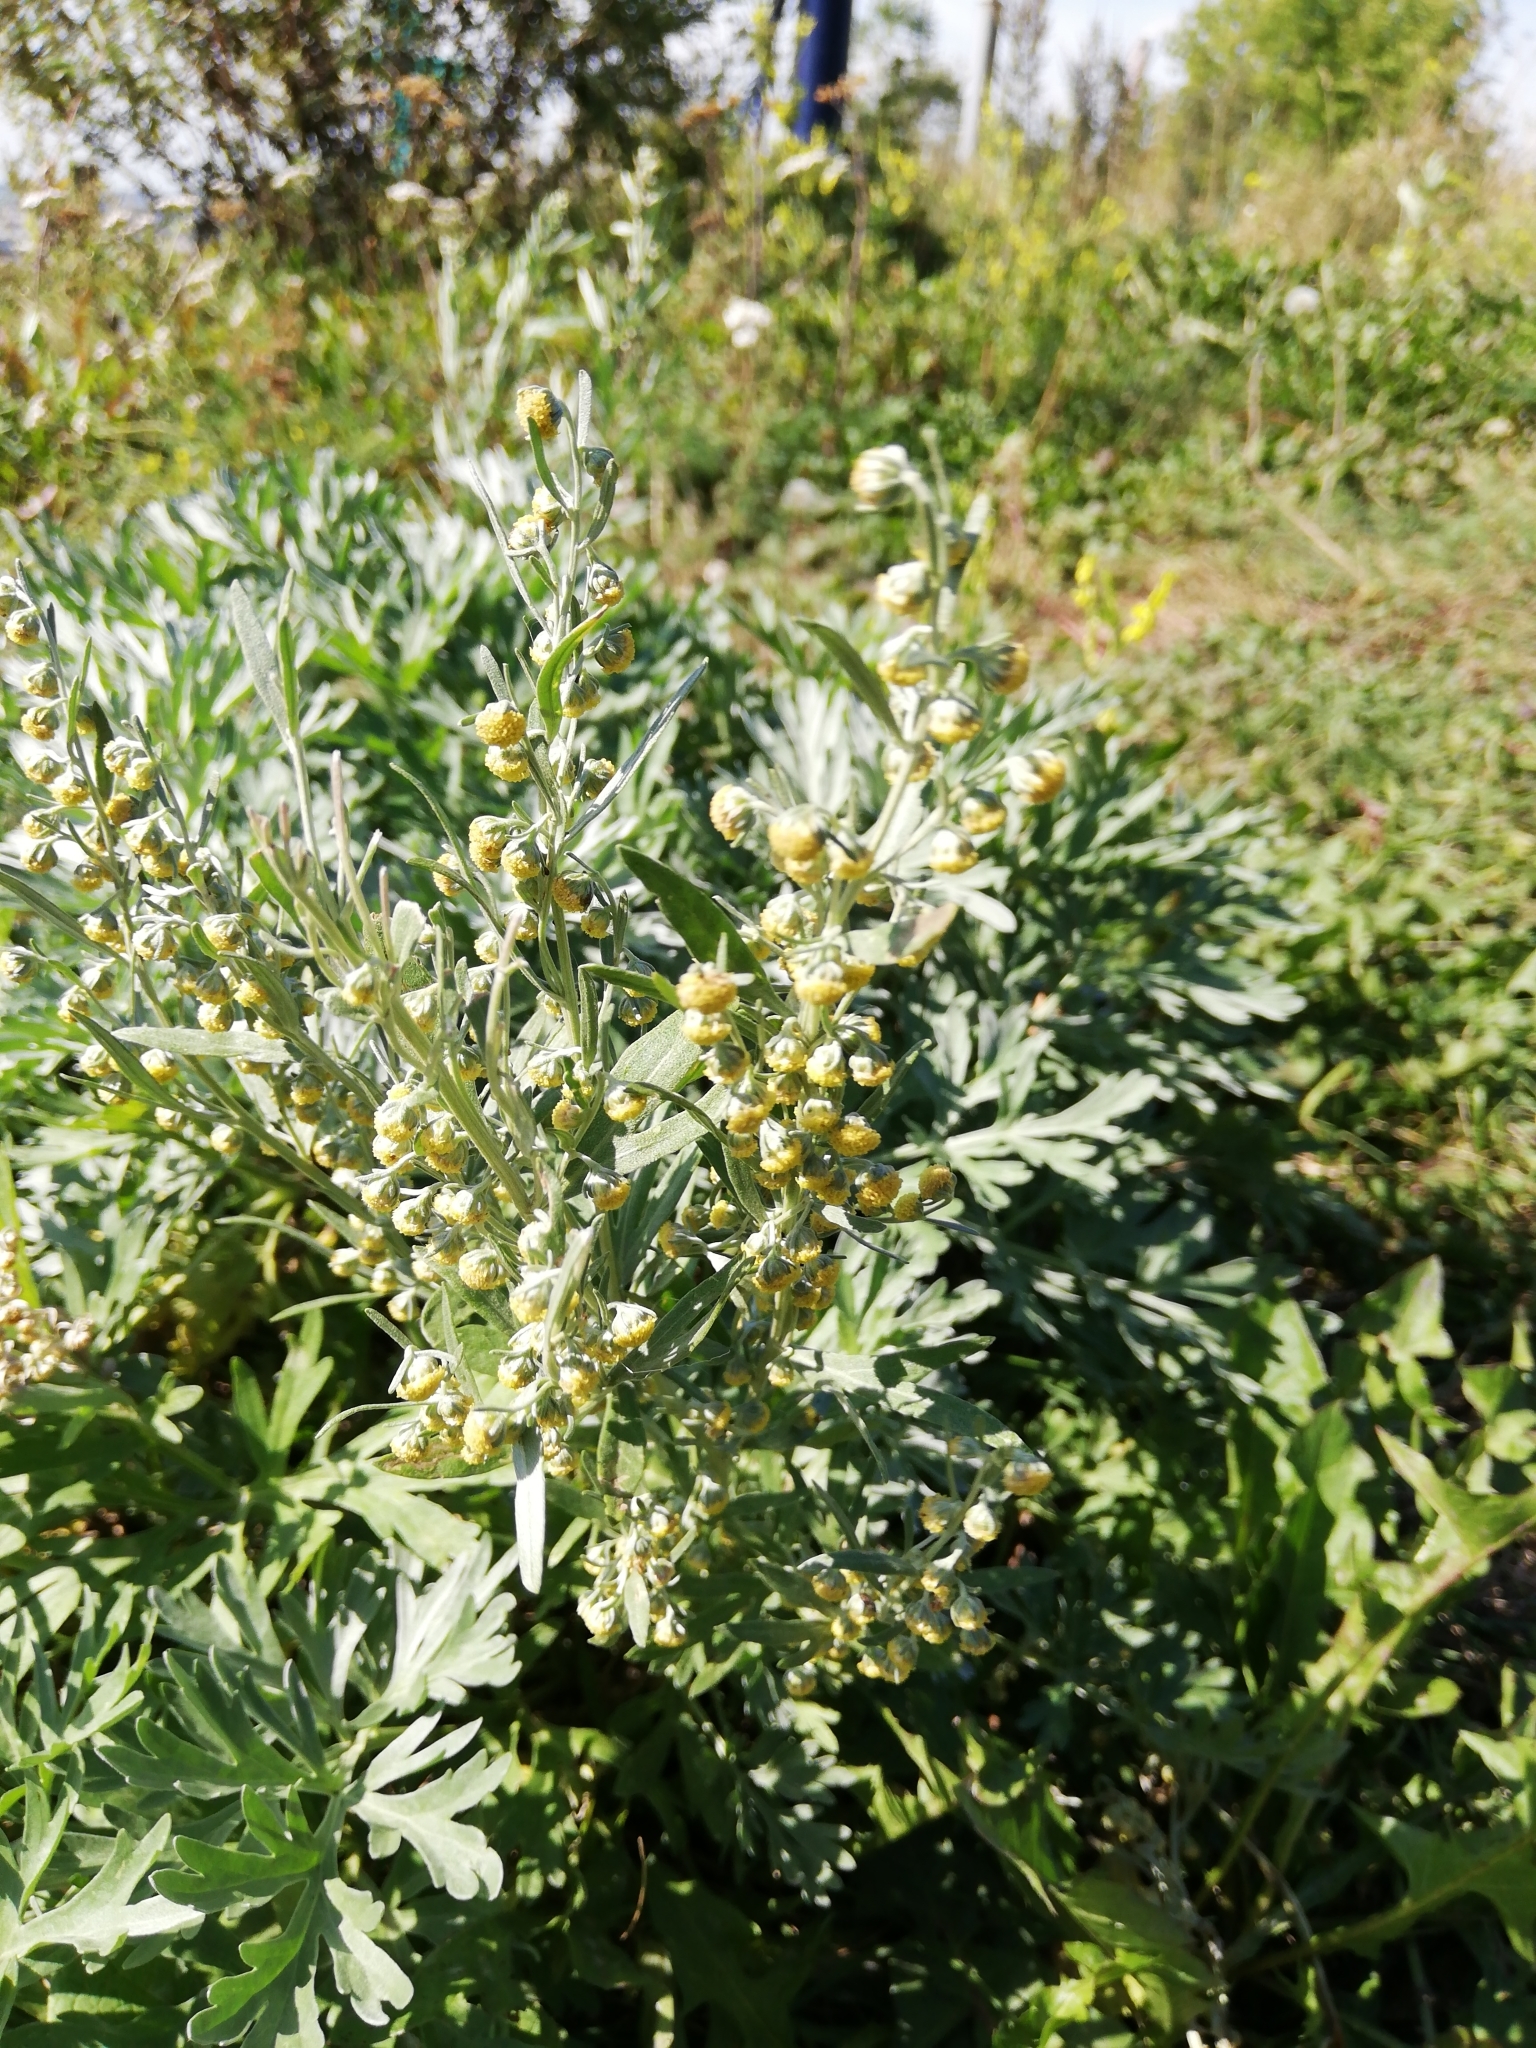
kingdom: Plantae
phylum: Tracheophyta
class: Magnoliopsida
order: Asterales
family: Asteraceae
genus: Artemisia
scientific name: Artemisia absinthium
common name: Wormwood
